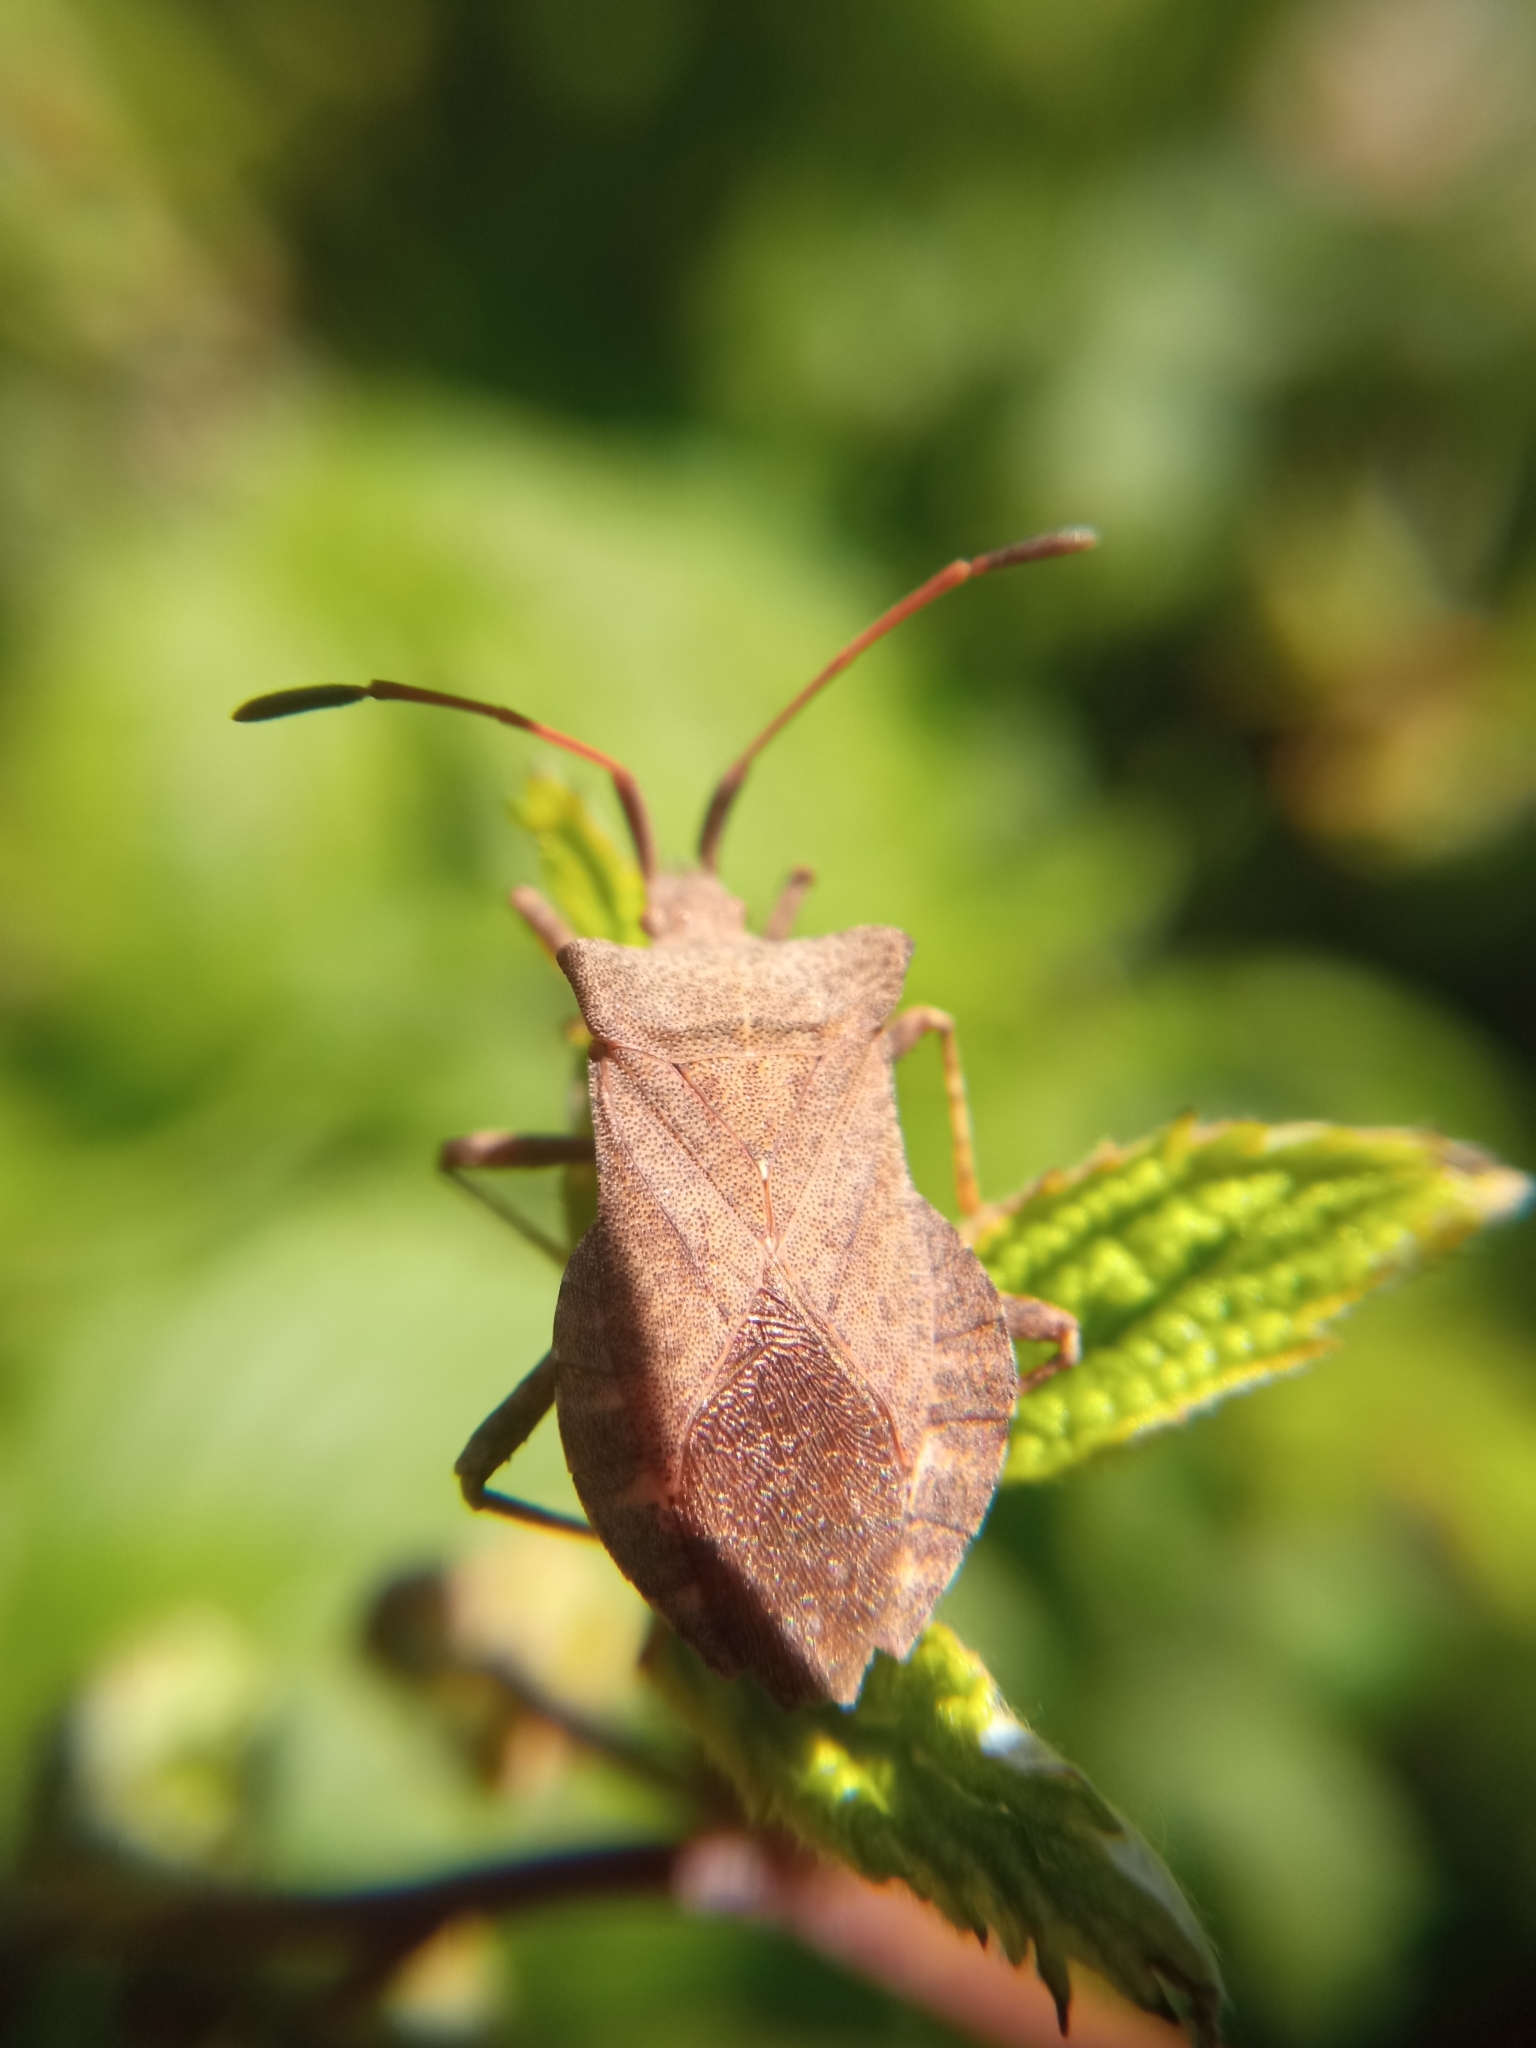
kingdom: Animalia
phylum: Arthropoda
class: Insecta
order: Hemiptera
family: Coreidae
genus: Coreus
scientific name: Coreus marginatus
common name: Dock bug
